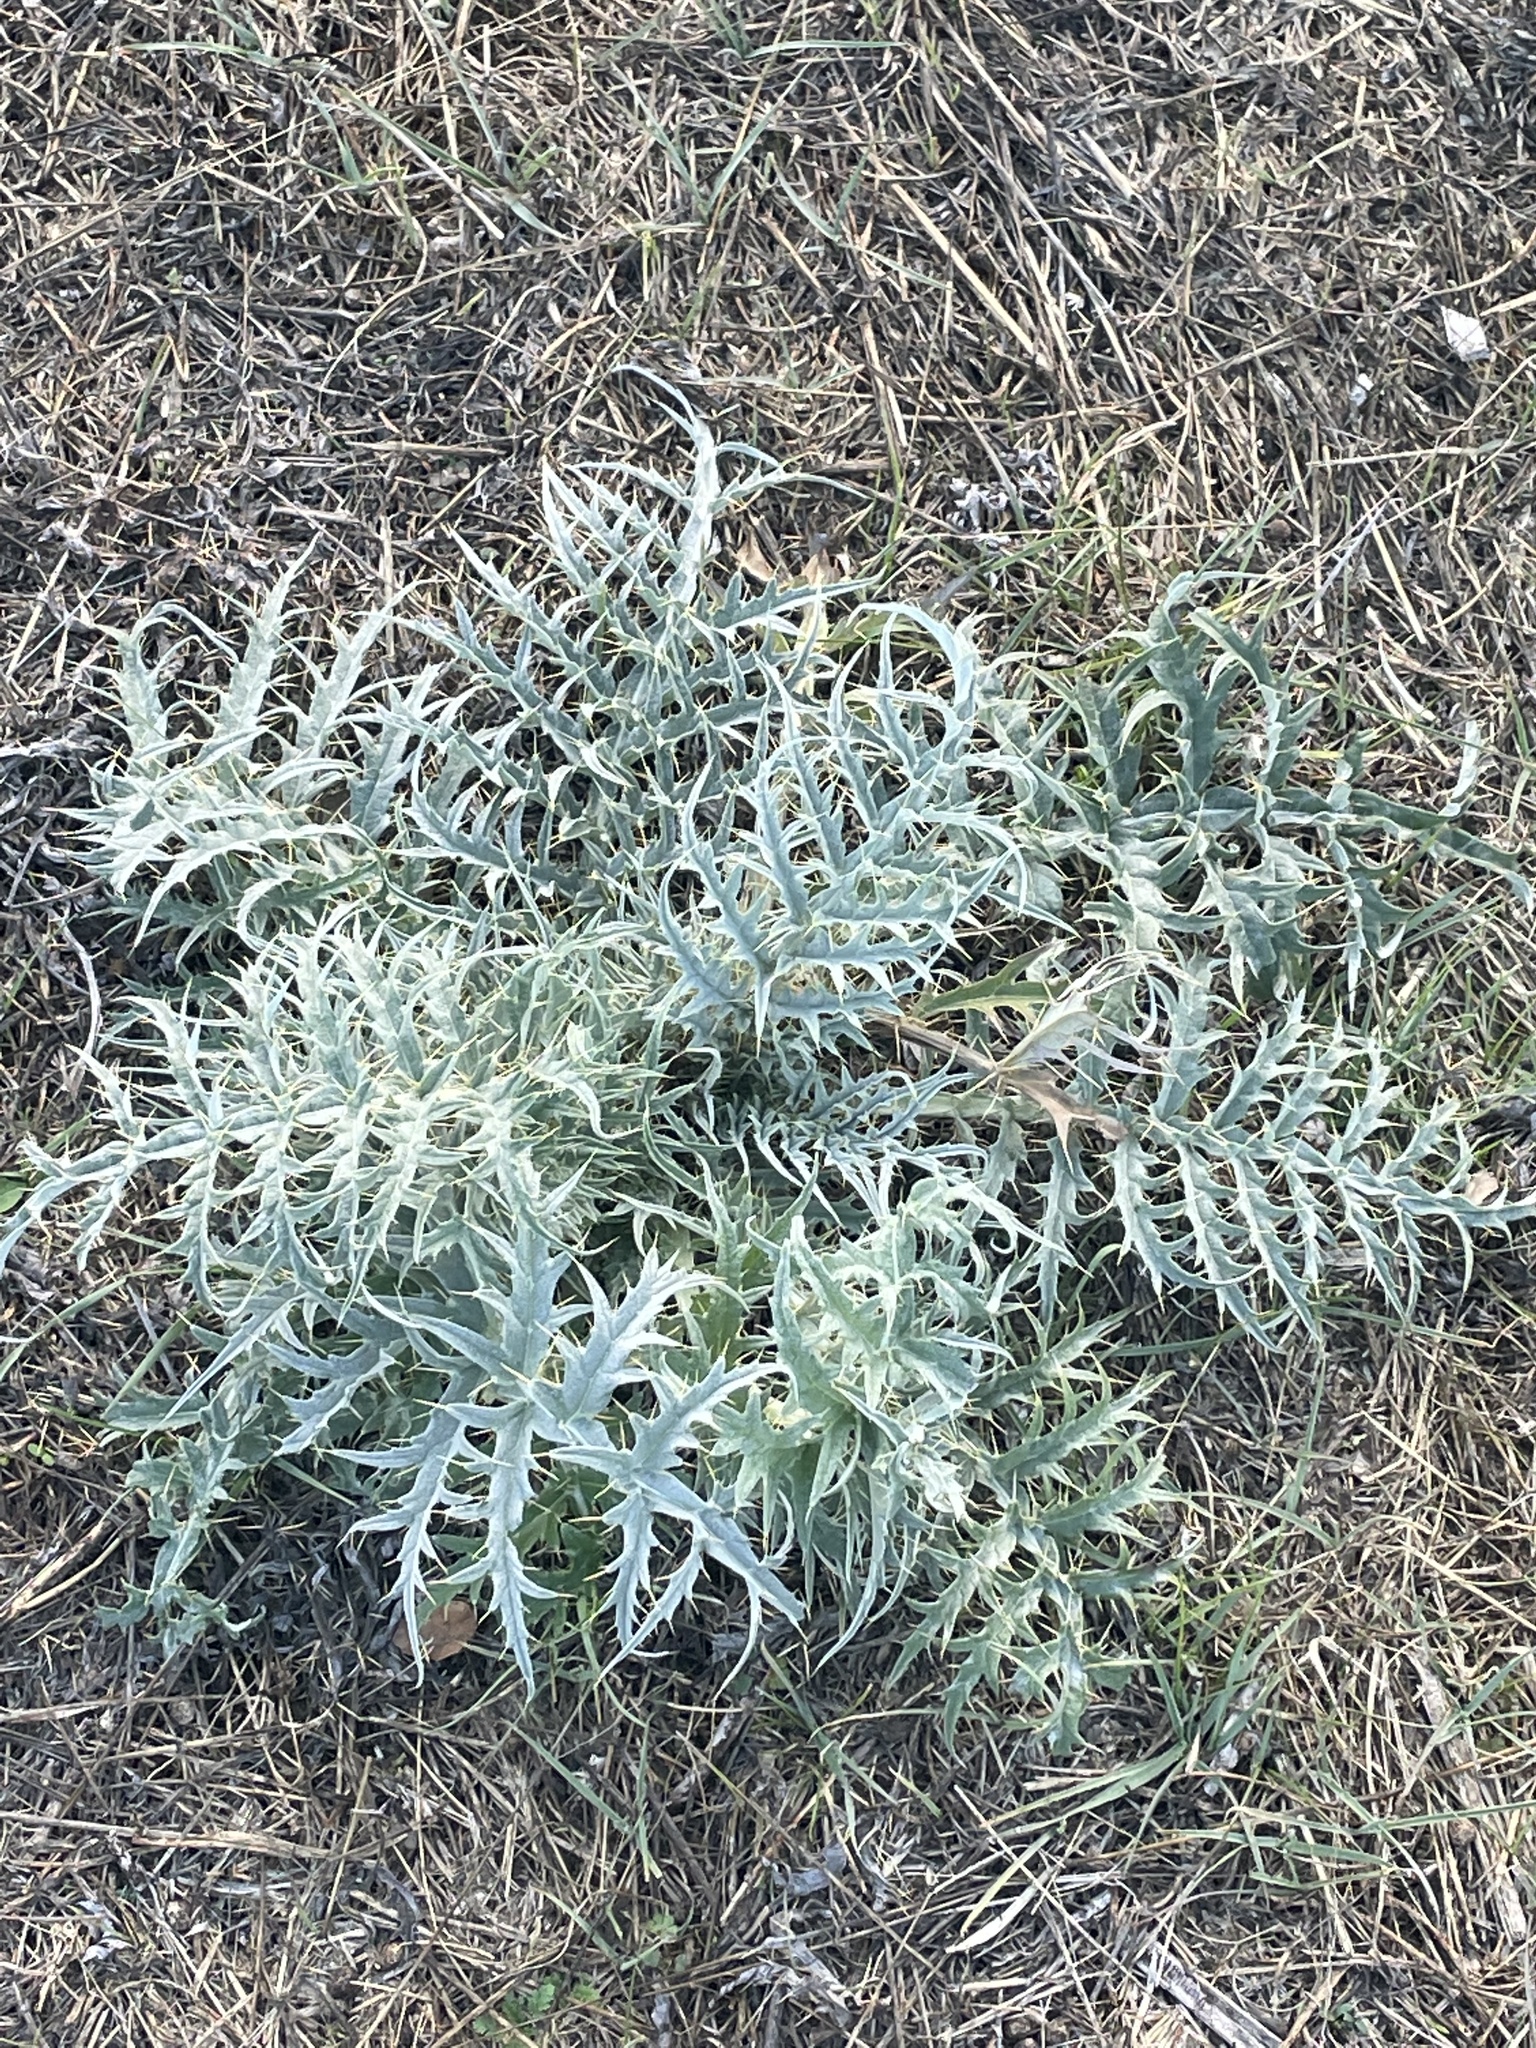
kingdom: Plantae
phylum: Tracheophyta
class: Magnoliopsida
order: Asterales
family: Asteraceae
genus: Cynara
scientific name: Cynara cardunculus
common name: Globe artichoke
